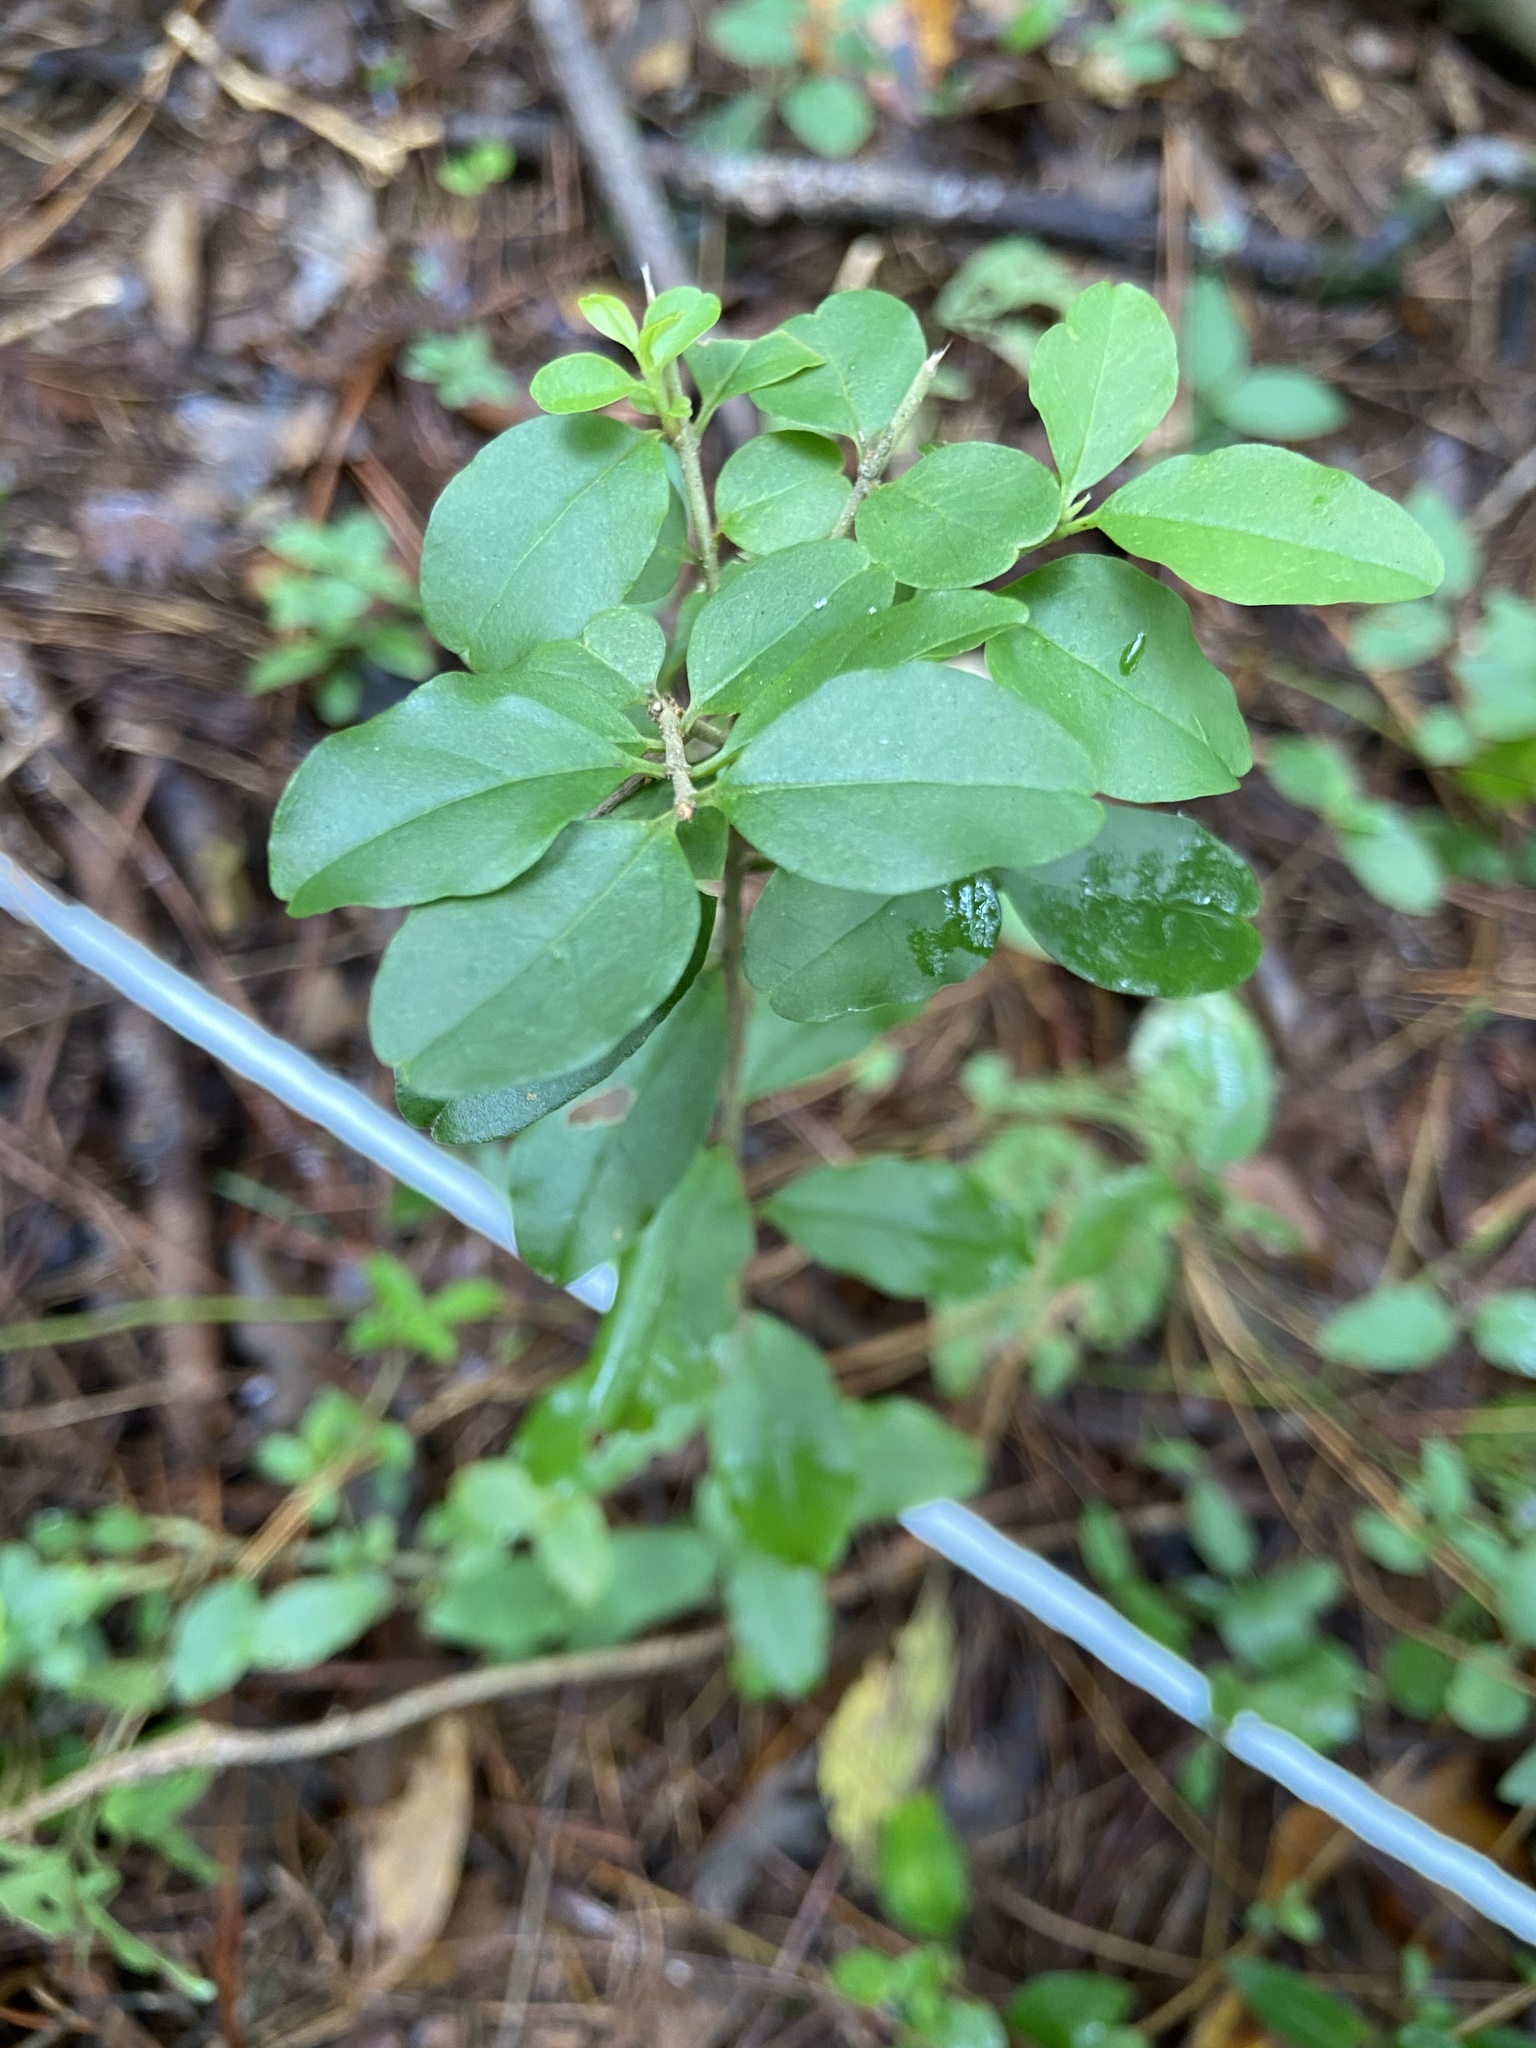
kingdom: Plantae
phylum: Tracheophyta
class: Magnoliopsida
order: Lamiales
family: Oleaceae
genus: Ligustrum
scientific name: Ligustrum sinense
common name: Chinese privet
